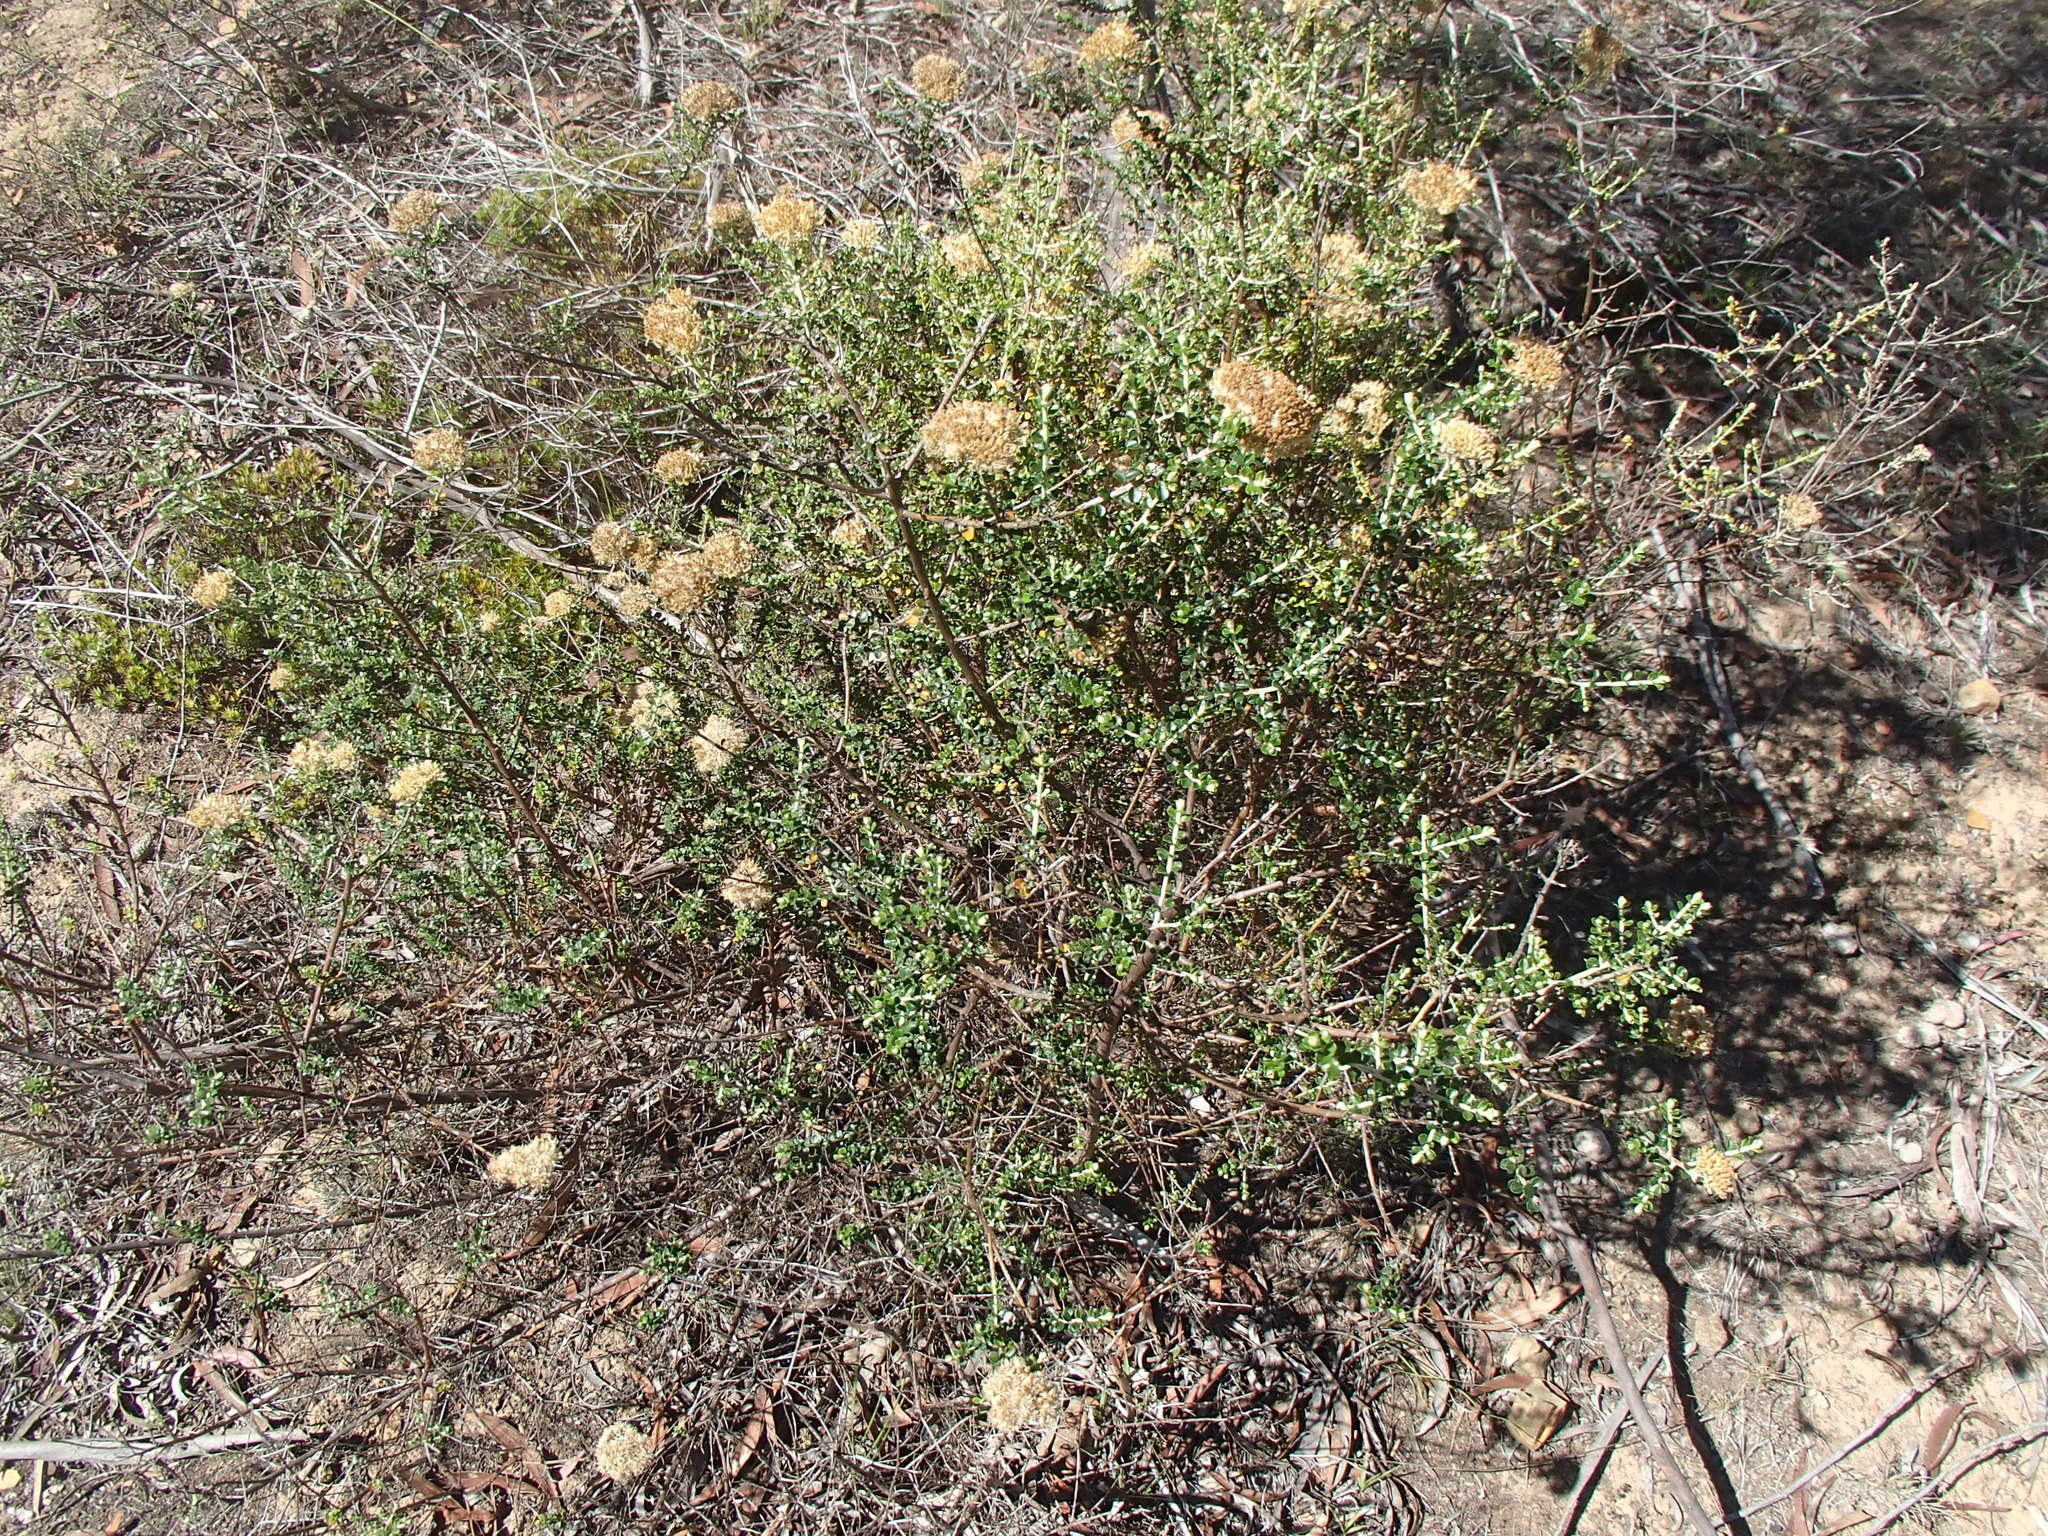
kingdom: Plantae
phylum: Tracheophyta
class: Magnoliopsida
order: Asterales
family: Asteraceae
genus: Ozothamnus
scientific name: Ozothamnus obcordatus
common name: Grey everlasting
